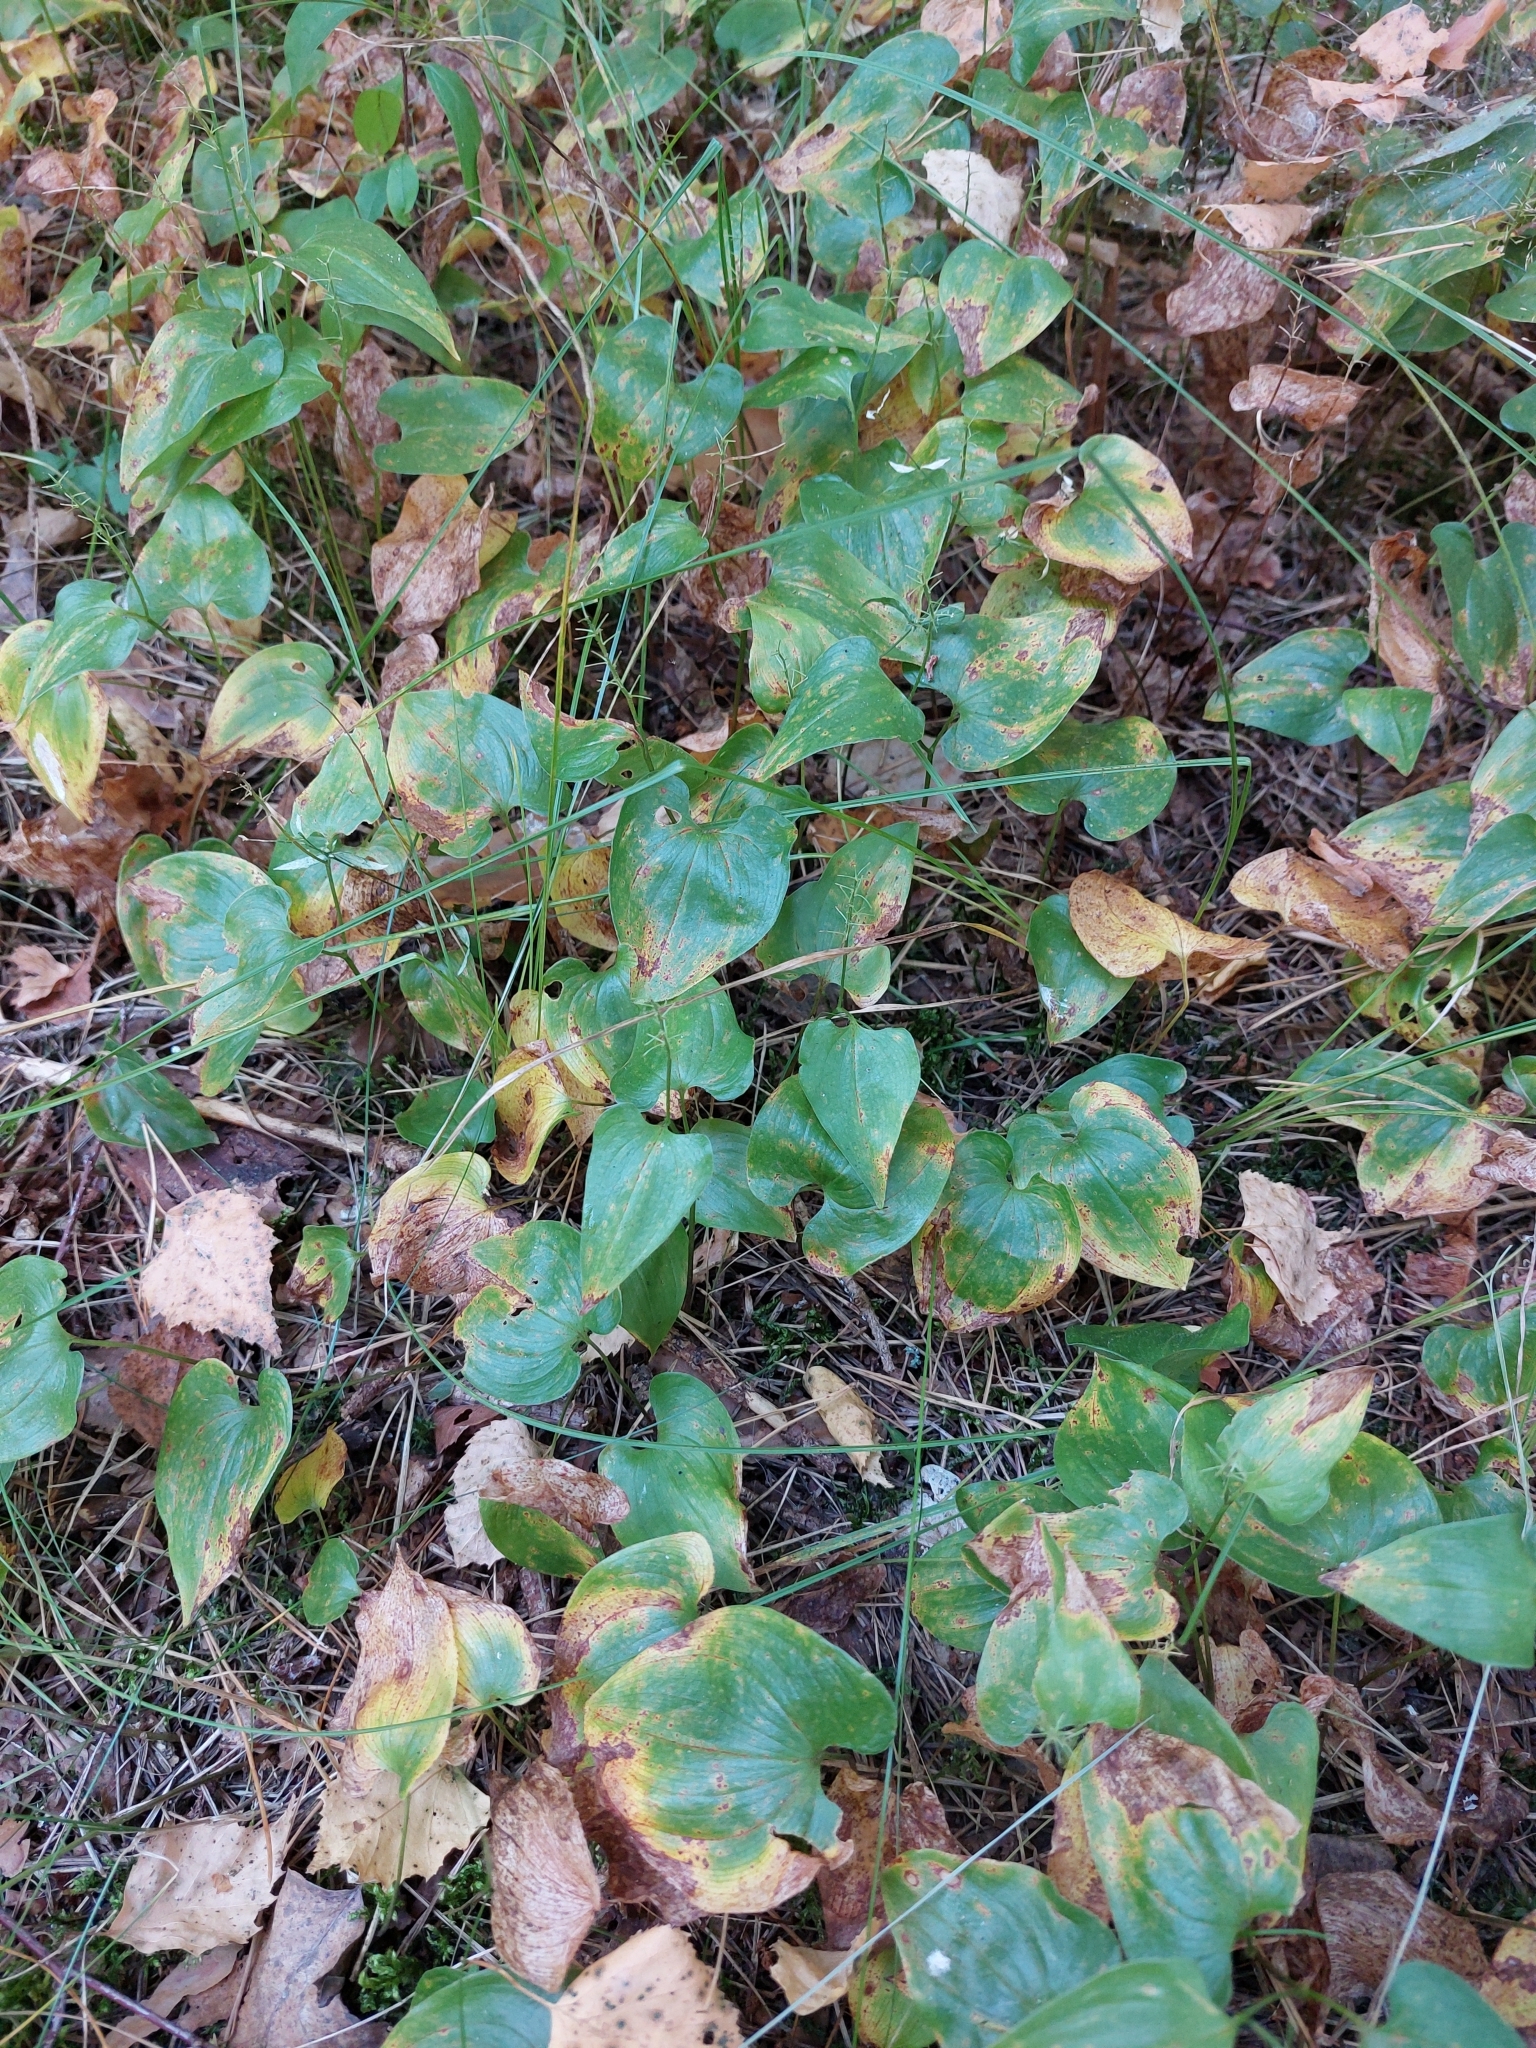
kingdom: Plantae
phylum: Tracheophyta
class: Liliopsida
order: Asparagales
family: Asparagaceae
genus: Maianthemum
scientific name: Maianthemum bifolium
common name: May lily
